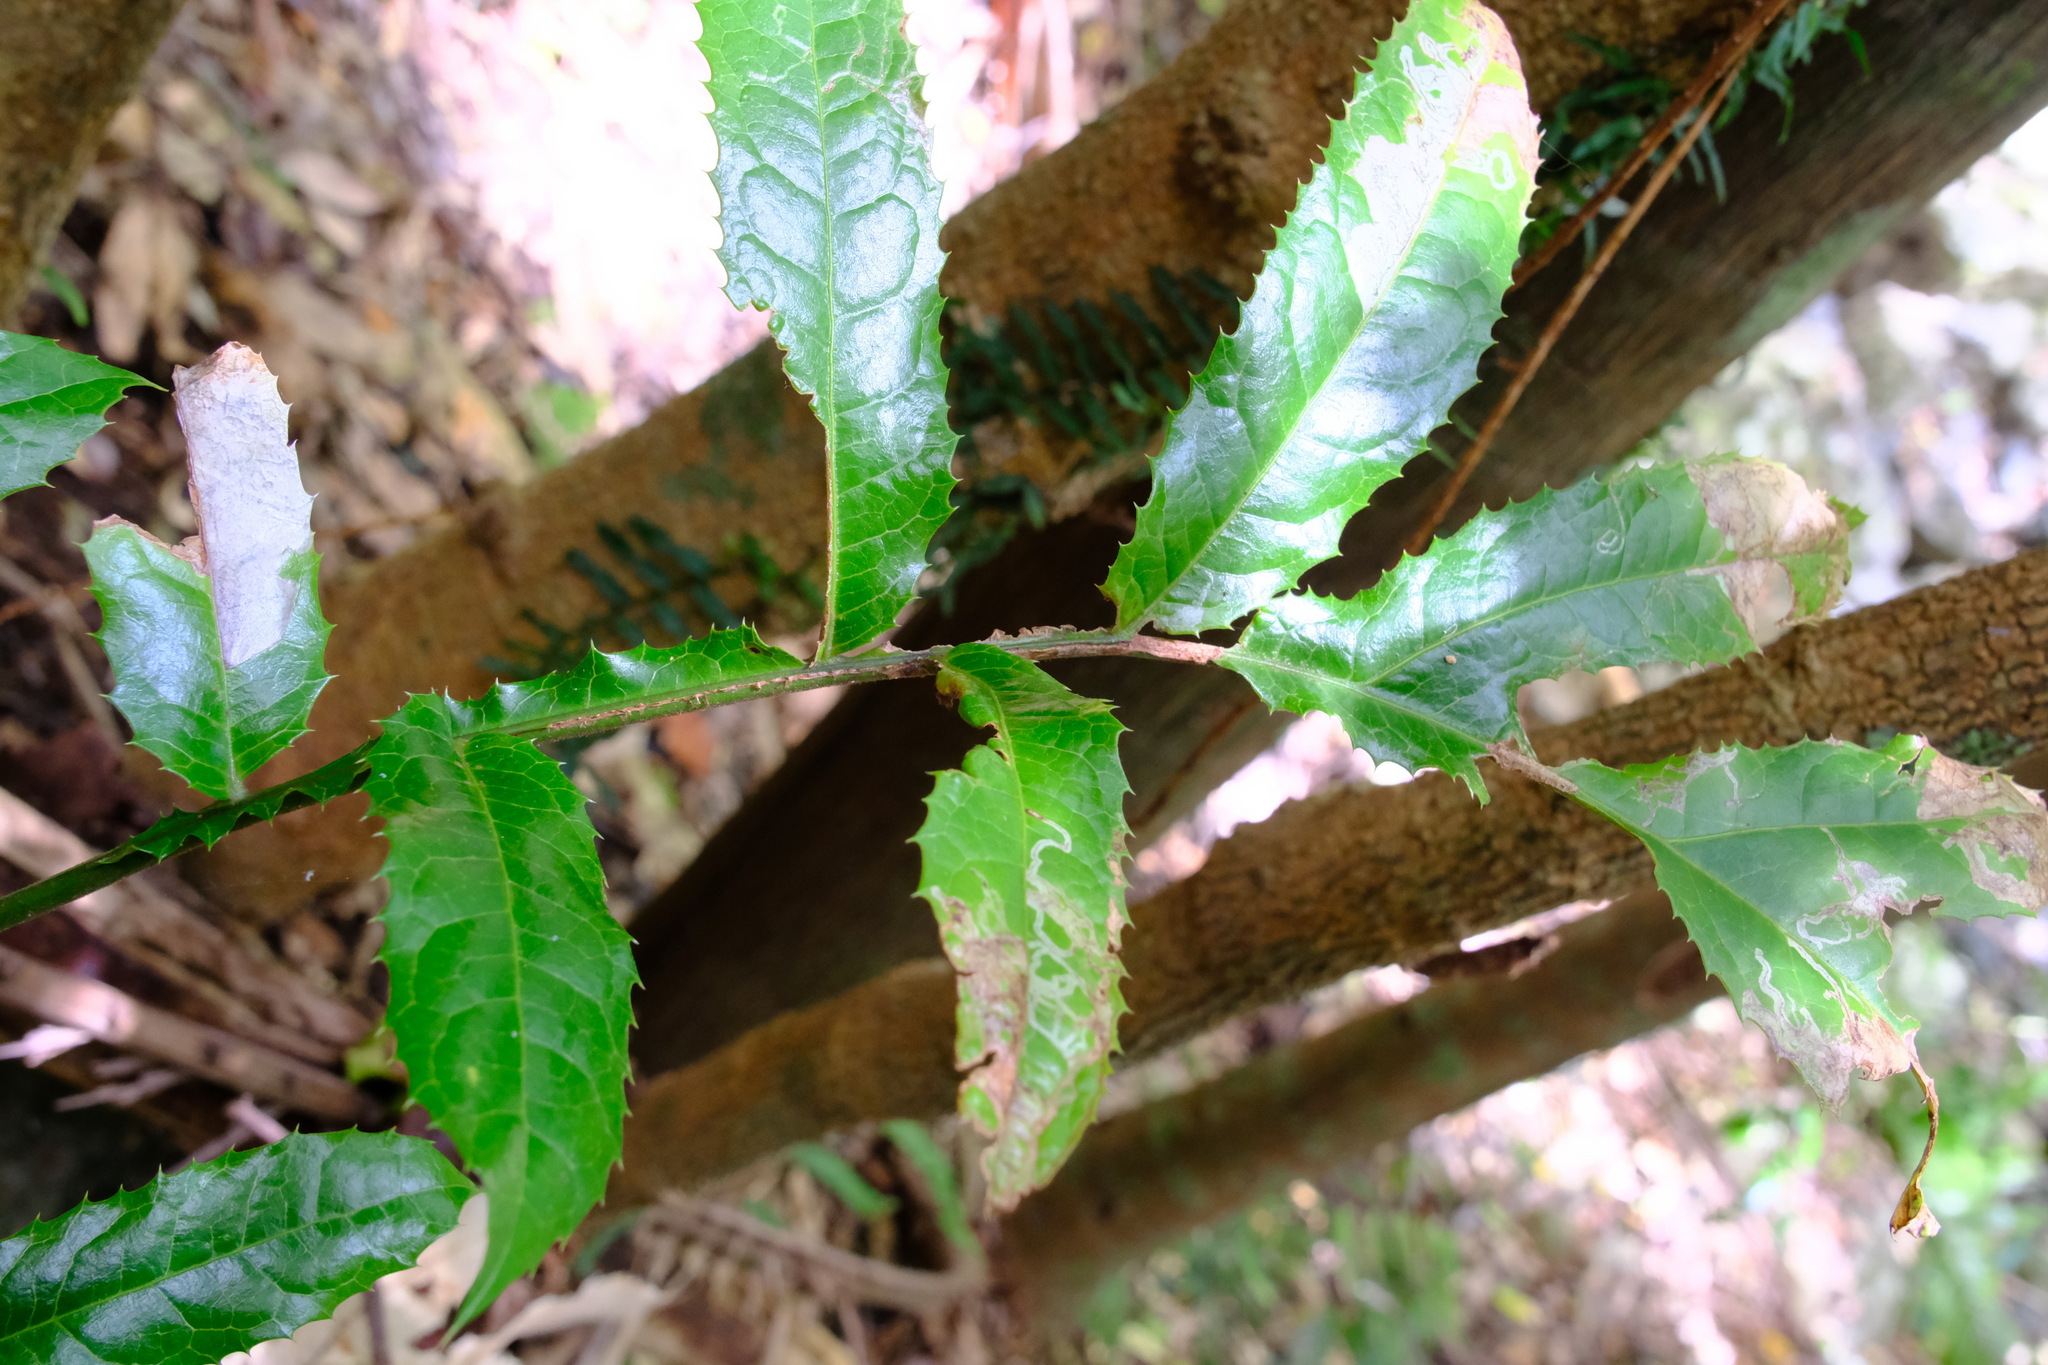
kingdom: Plantae
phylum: Tracheophyta
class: Magnoliopsida
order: Proteales
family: Proteaceae
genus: Hicksbeachia
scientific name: Hicksbeachia pinnatifolia
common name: Beefnut
